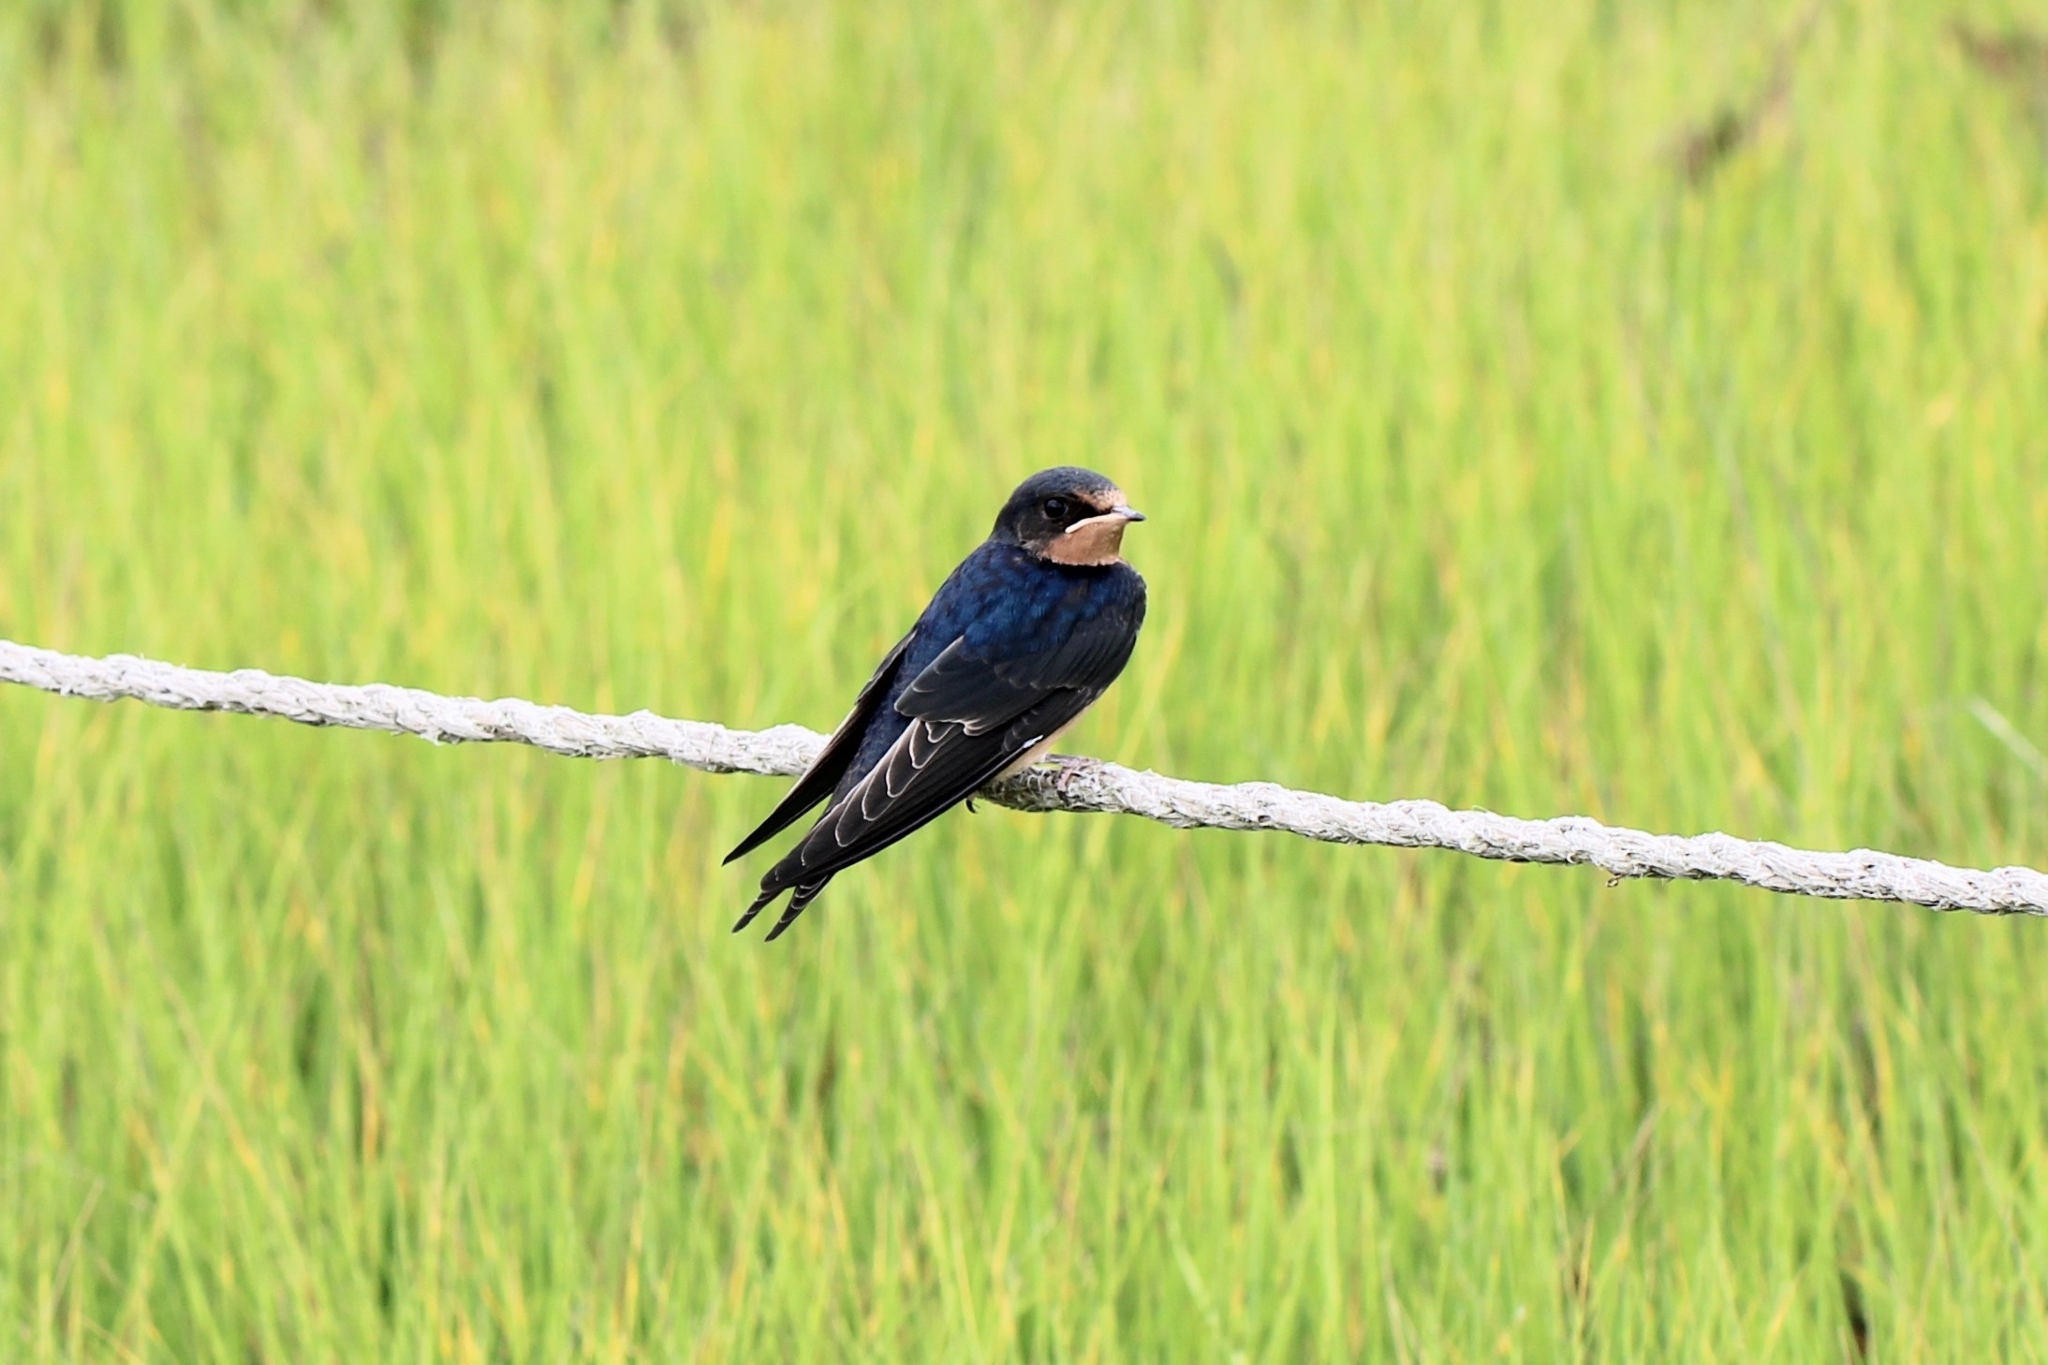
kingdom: Animalia
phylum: Chordata
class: Aves
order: Passeriformes
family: Hirundinidae
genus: Hirundo
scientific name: Hirundo rustica
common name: Barn swallow
